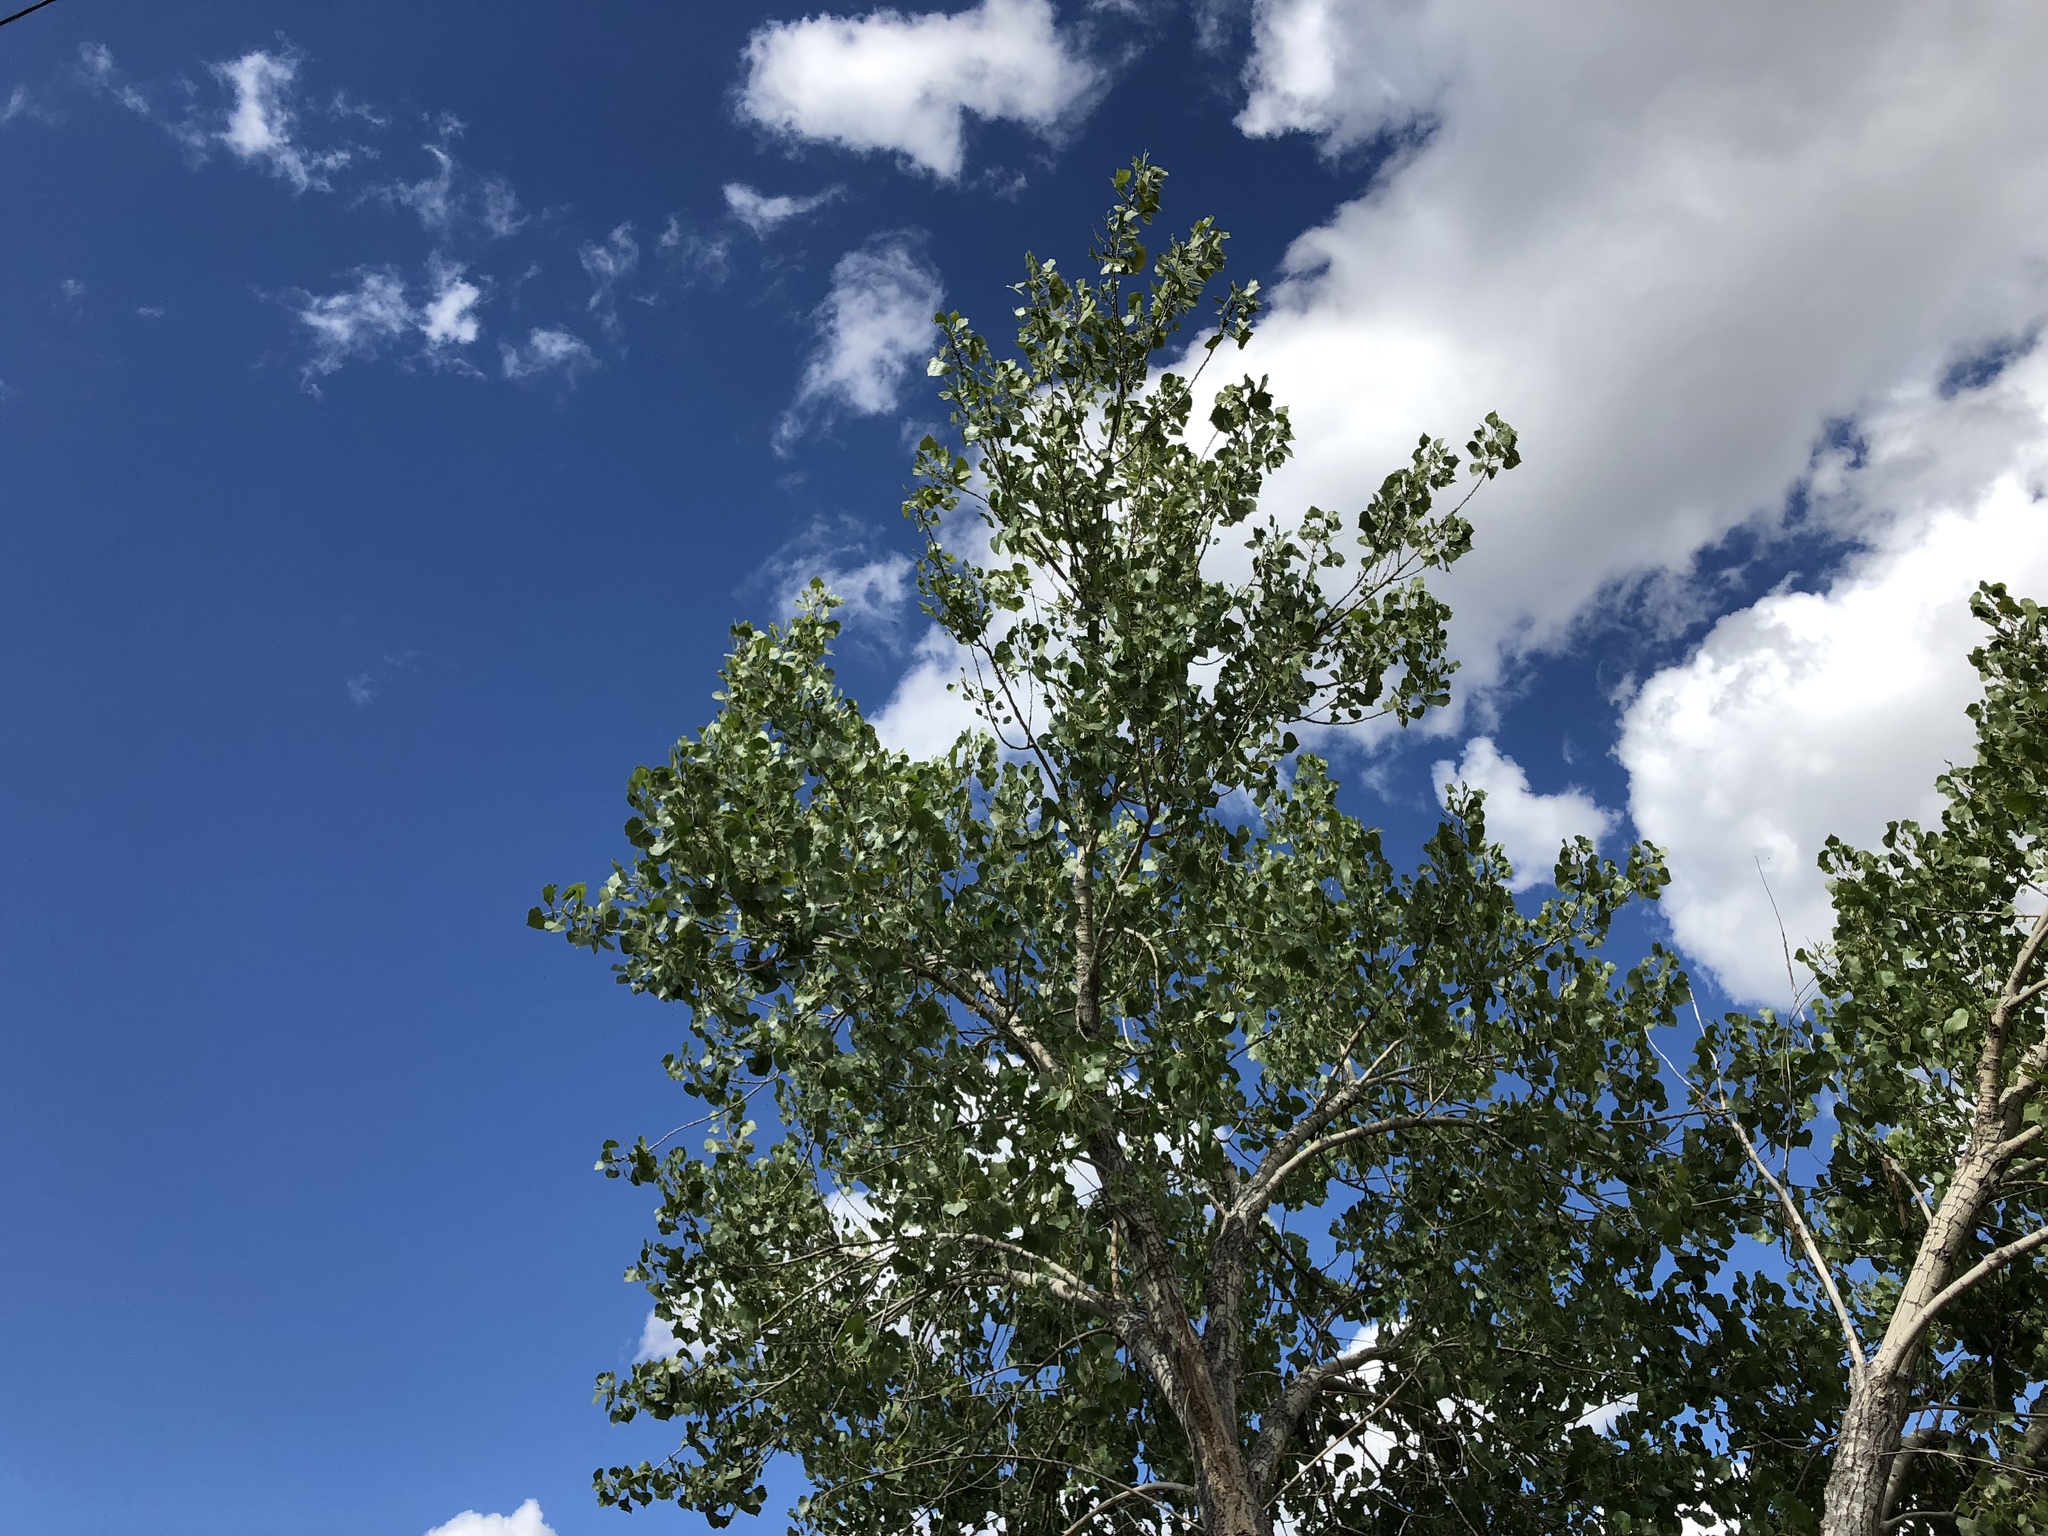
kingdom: Plantae
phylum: Tracheophyta
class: Magnoliopsida
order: Malpighiales
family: Salicaceae
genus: Populus
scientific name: Populus fremontii
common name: Fremont's cottonwood
